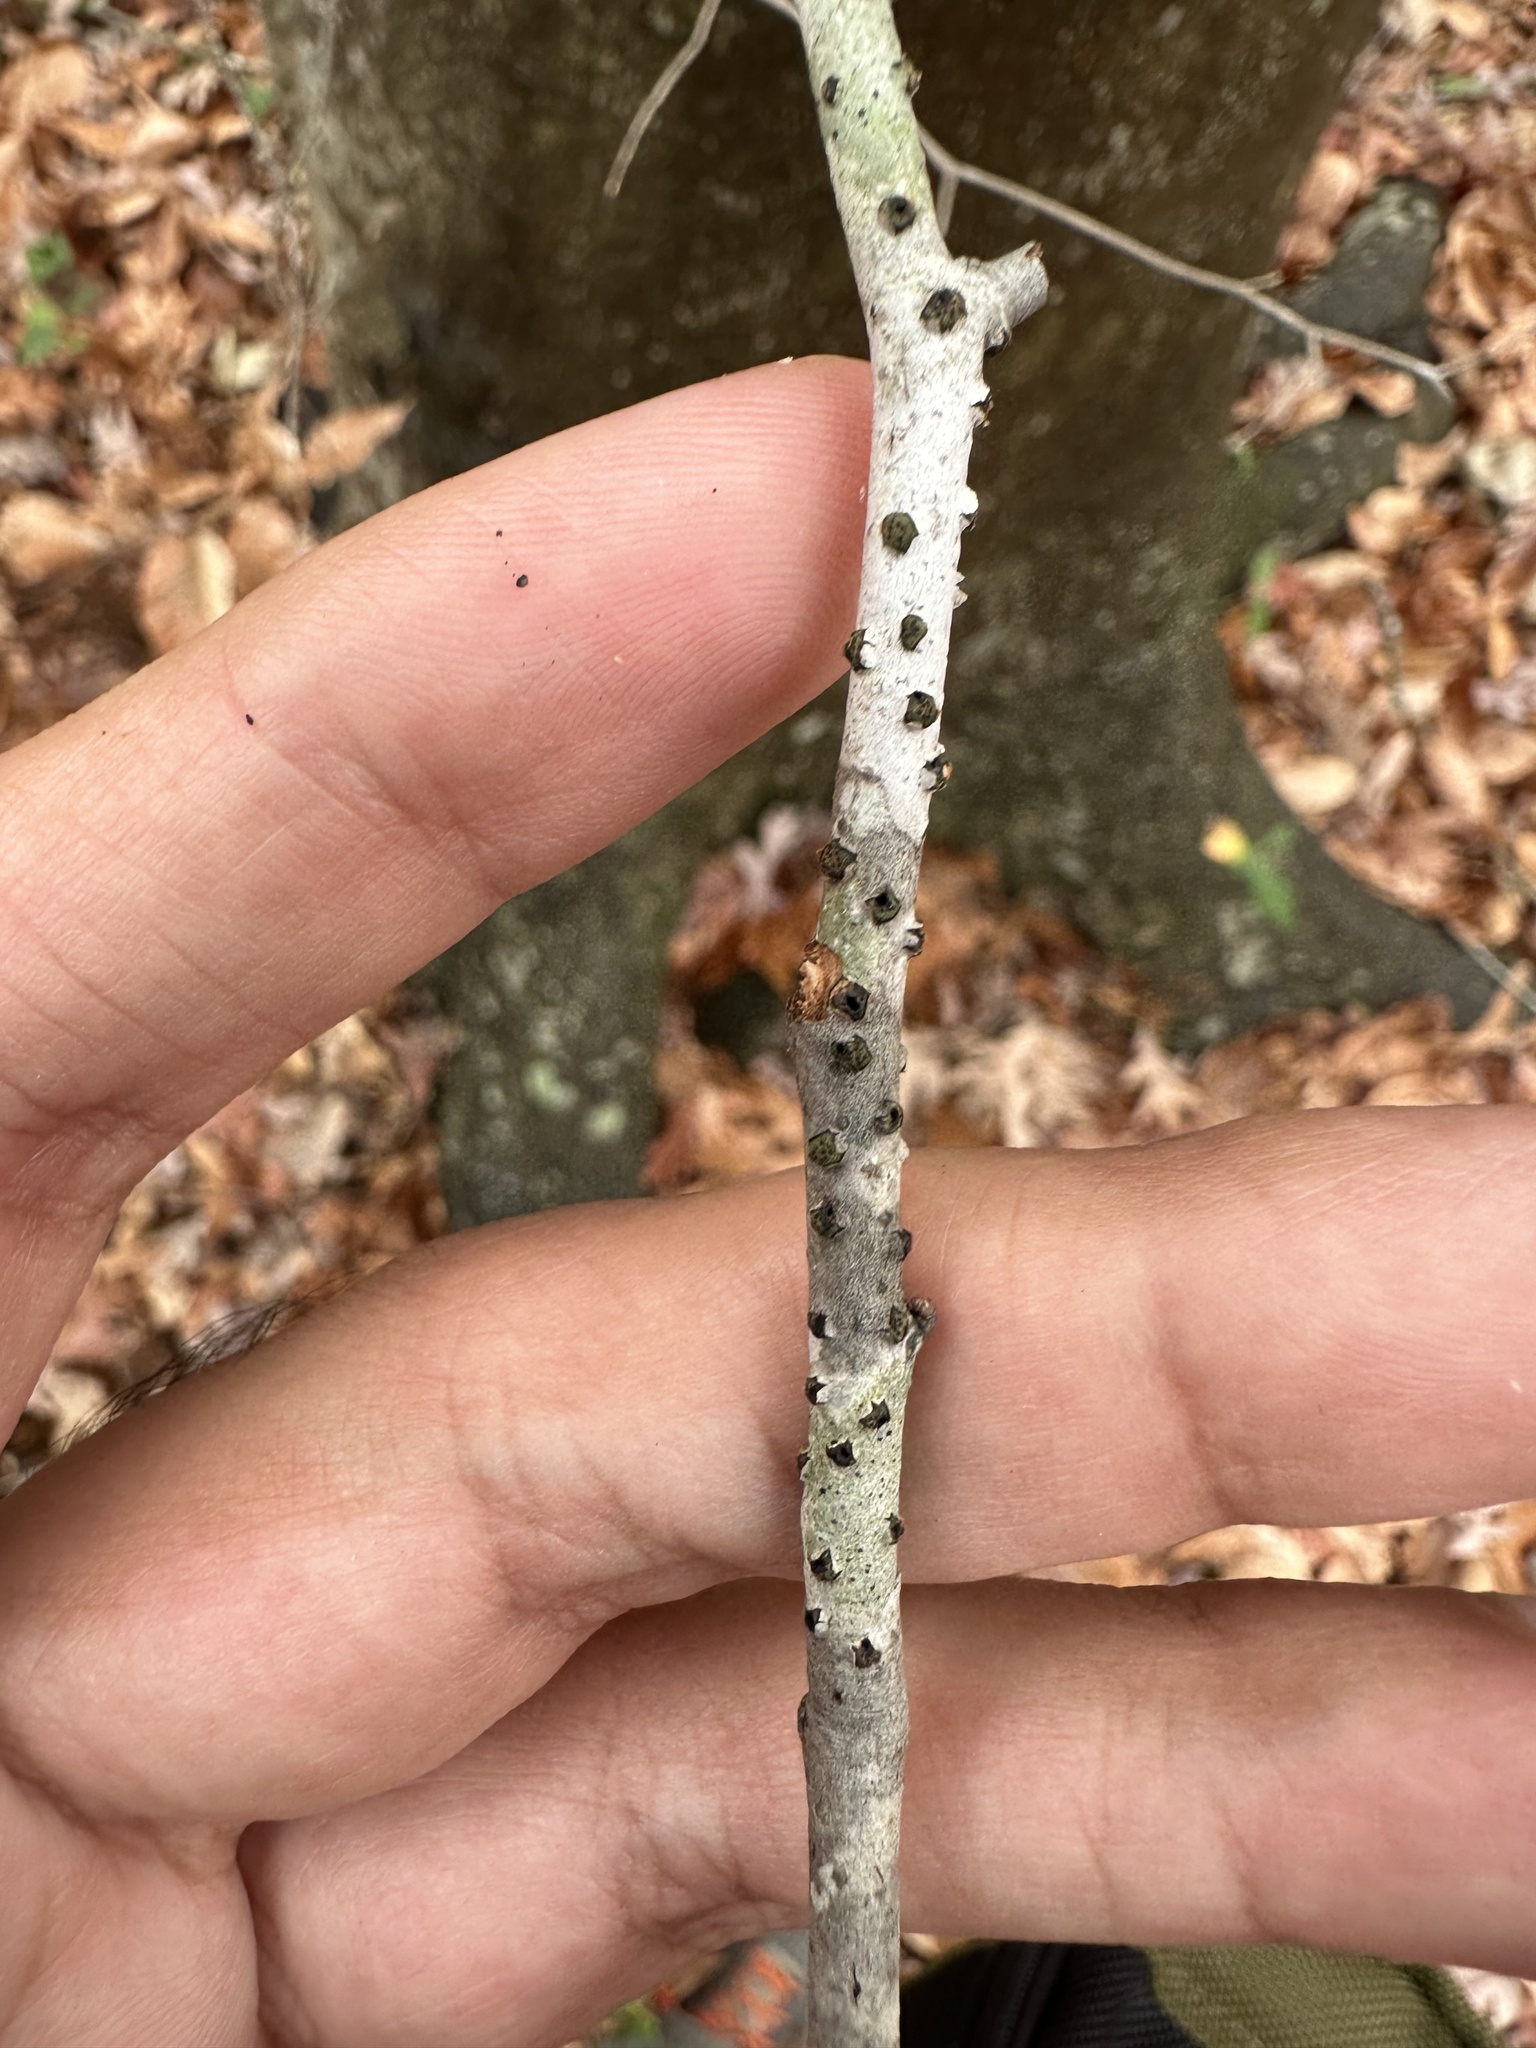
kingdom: Fungi
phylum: Ascomycota
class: Sordariomycetes
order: Xylariales
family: Diatrypaceae
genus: Diatrype
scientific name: Diatrype virescens
